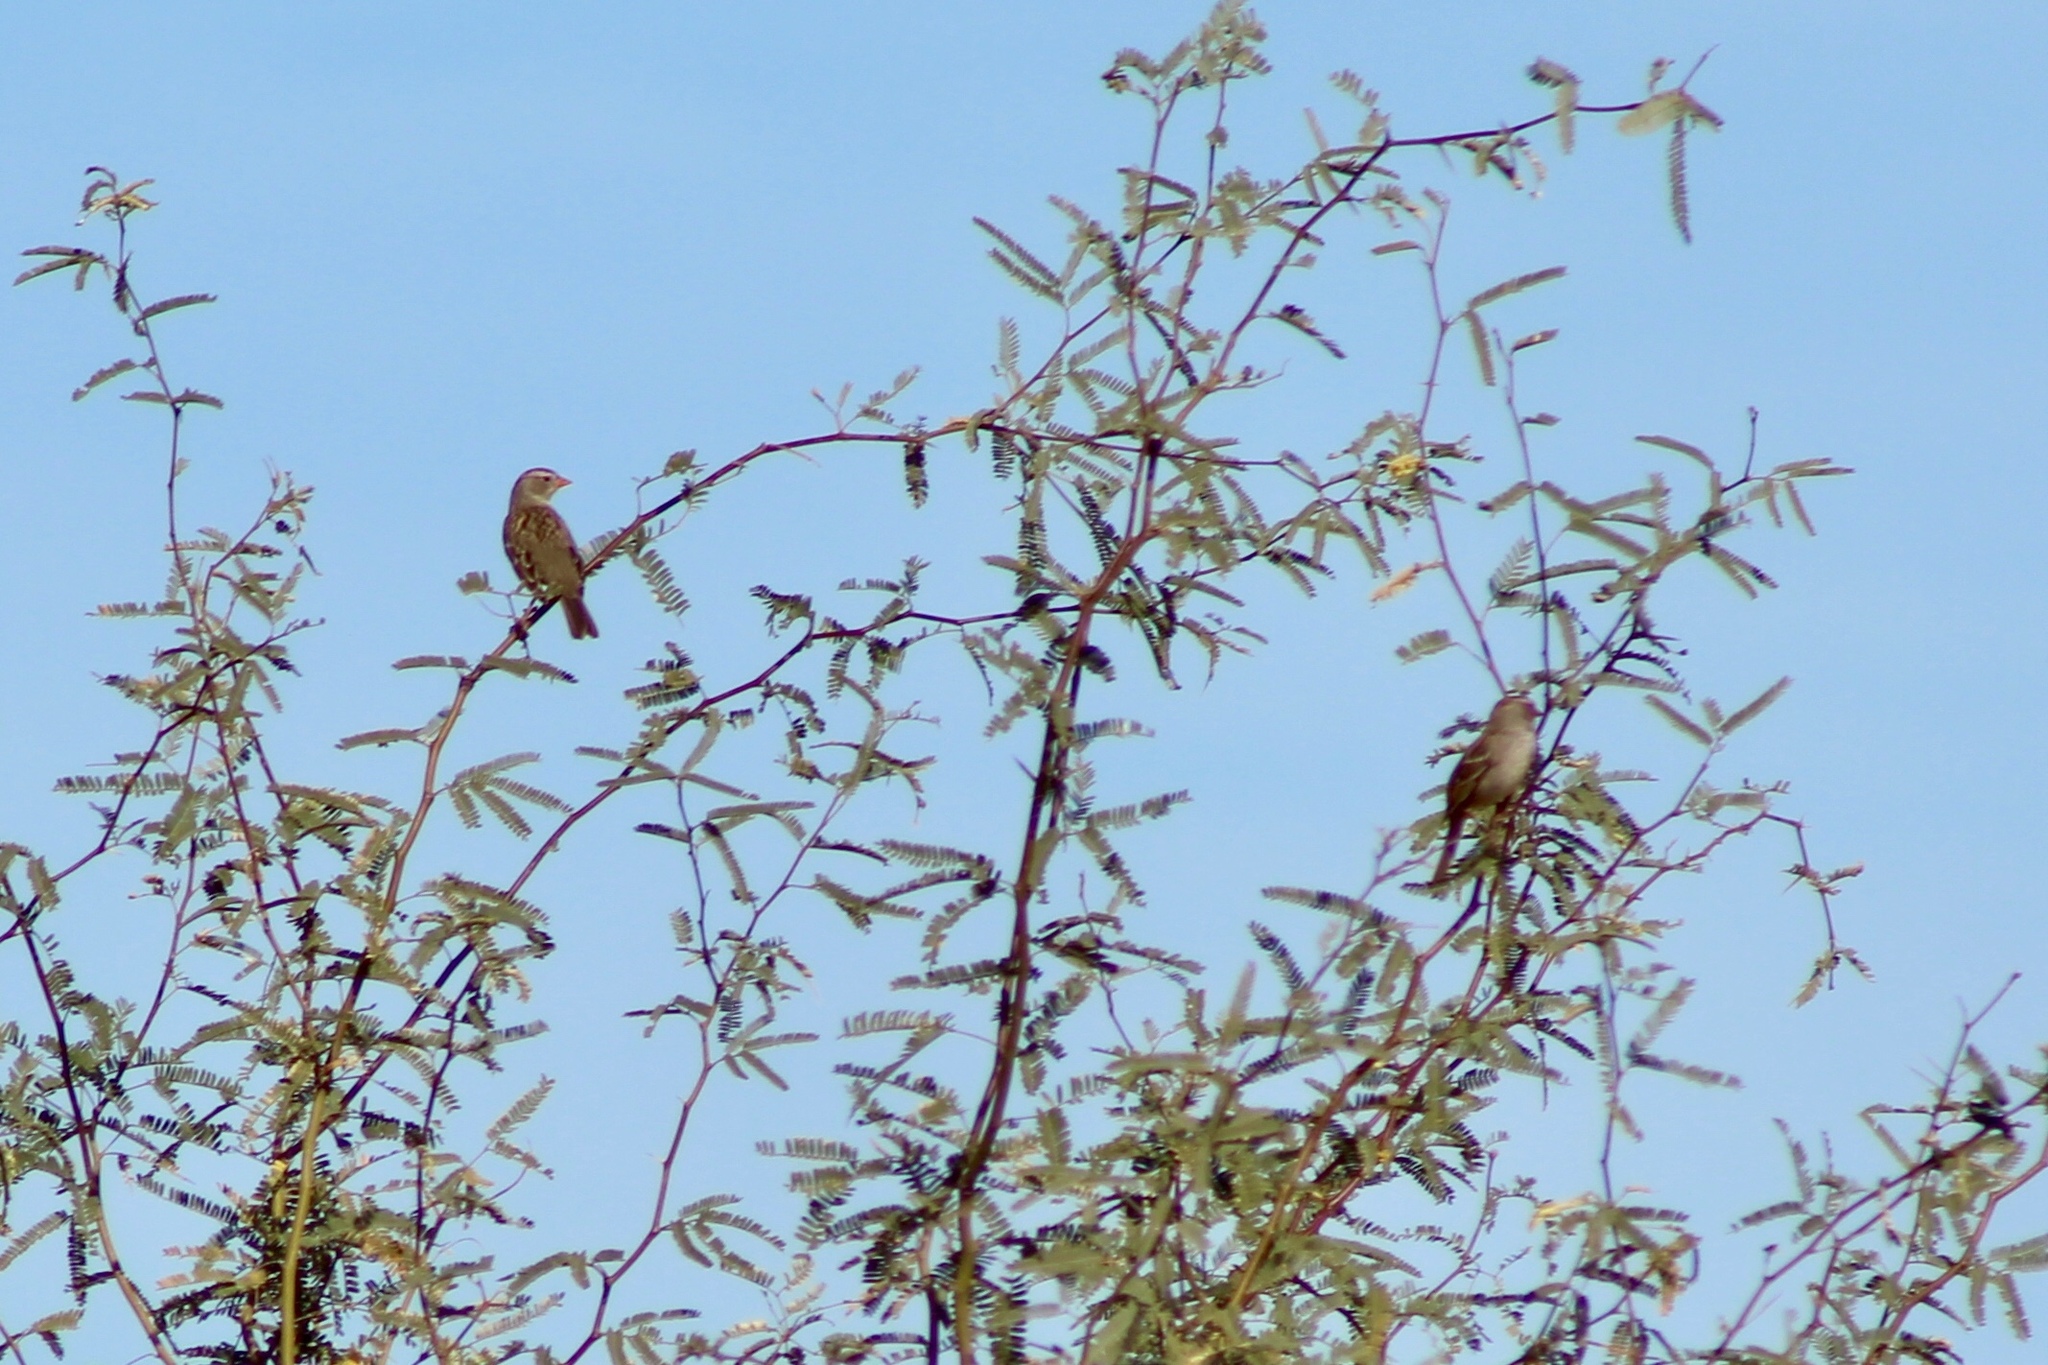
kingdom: Animalia
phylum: Chordata
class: Aves
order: Passeriformes
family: Passerellidae
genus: Zonotrichia
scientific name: Zonotrichia leucophrys
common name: White-crowned sparrow
